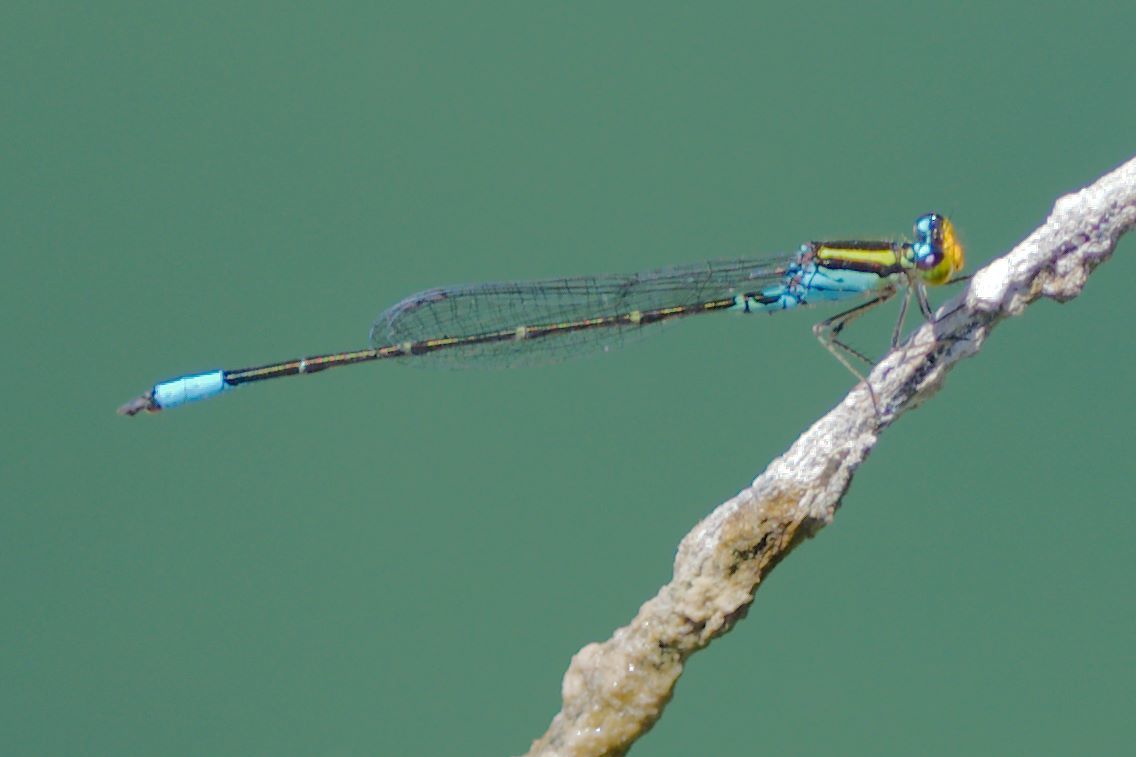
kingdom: Animalia
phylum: Arthropoda
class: Insecta
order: Odonata
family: Coenagrionidae
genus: Neoerythromma
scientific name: Neoerythromma cultellatum
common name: Caribbean yellowface
